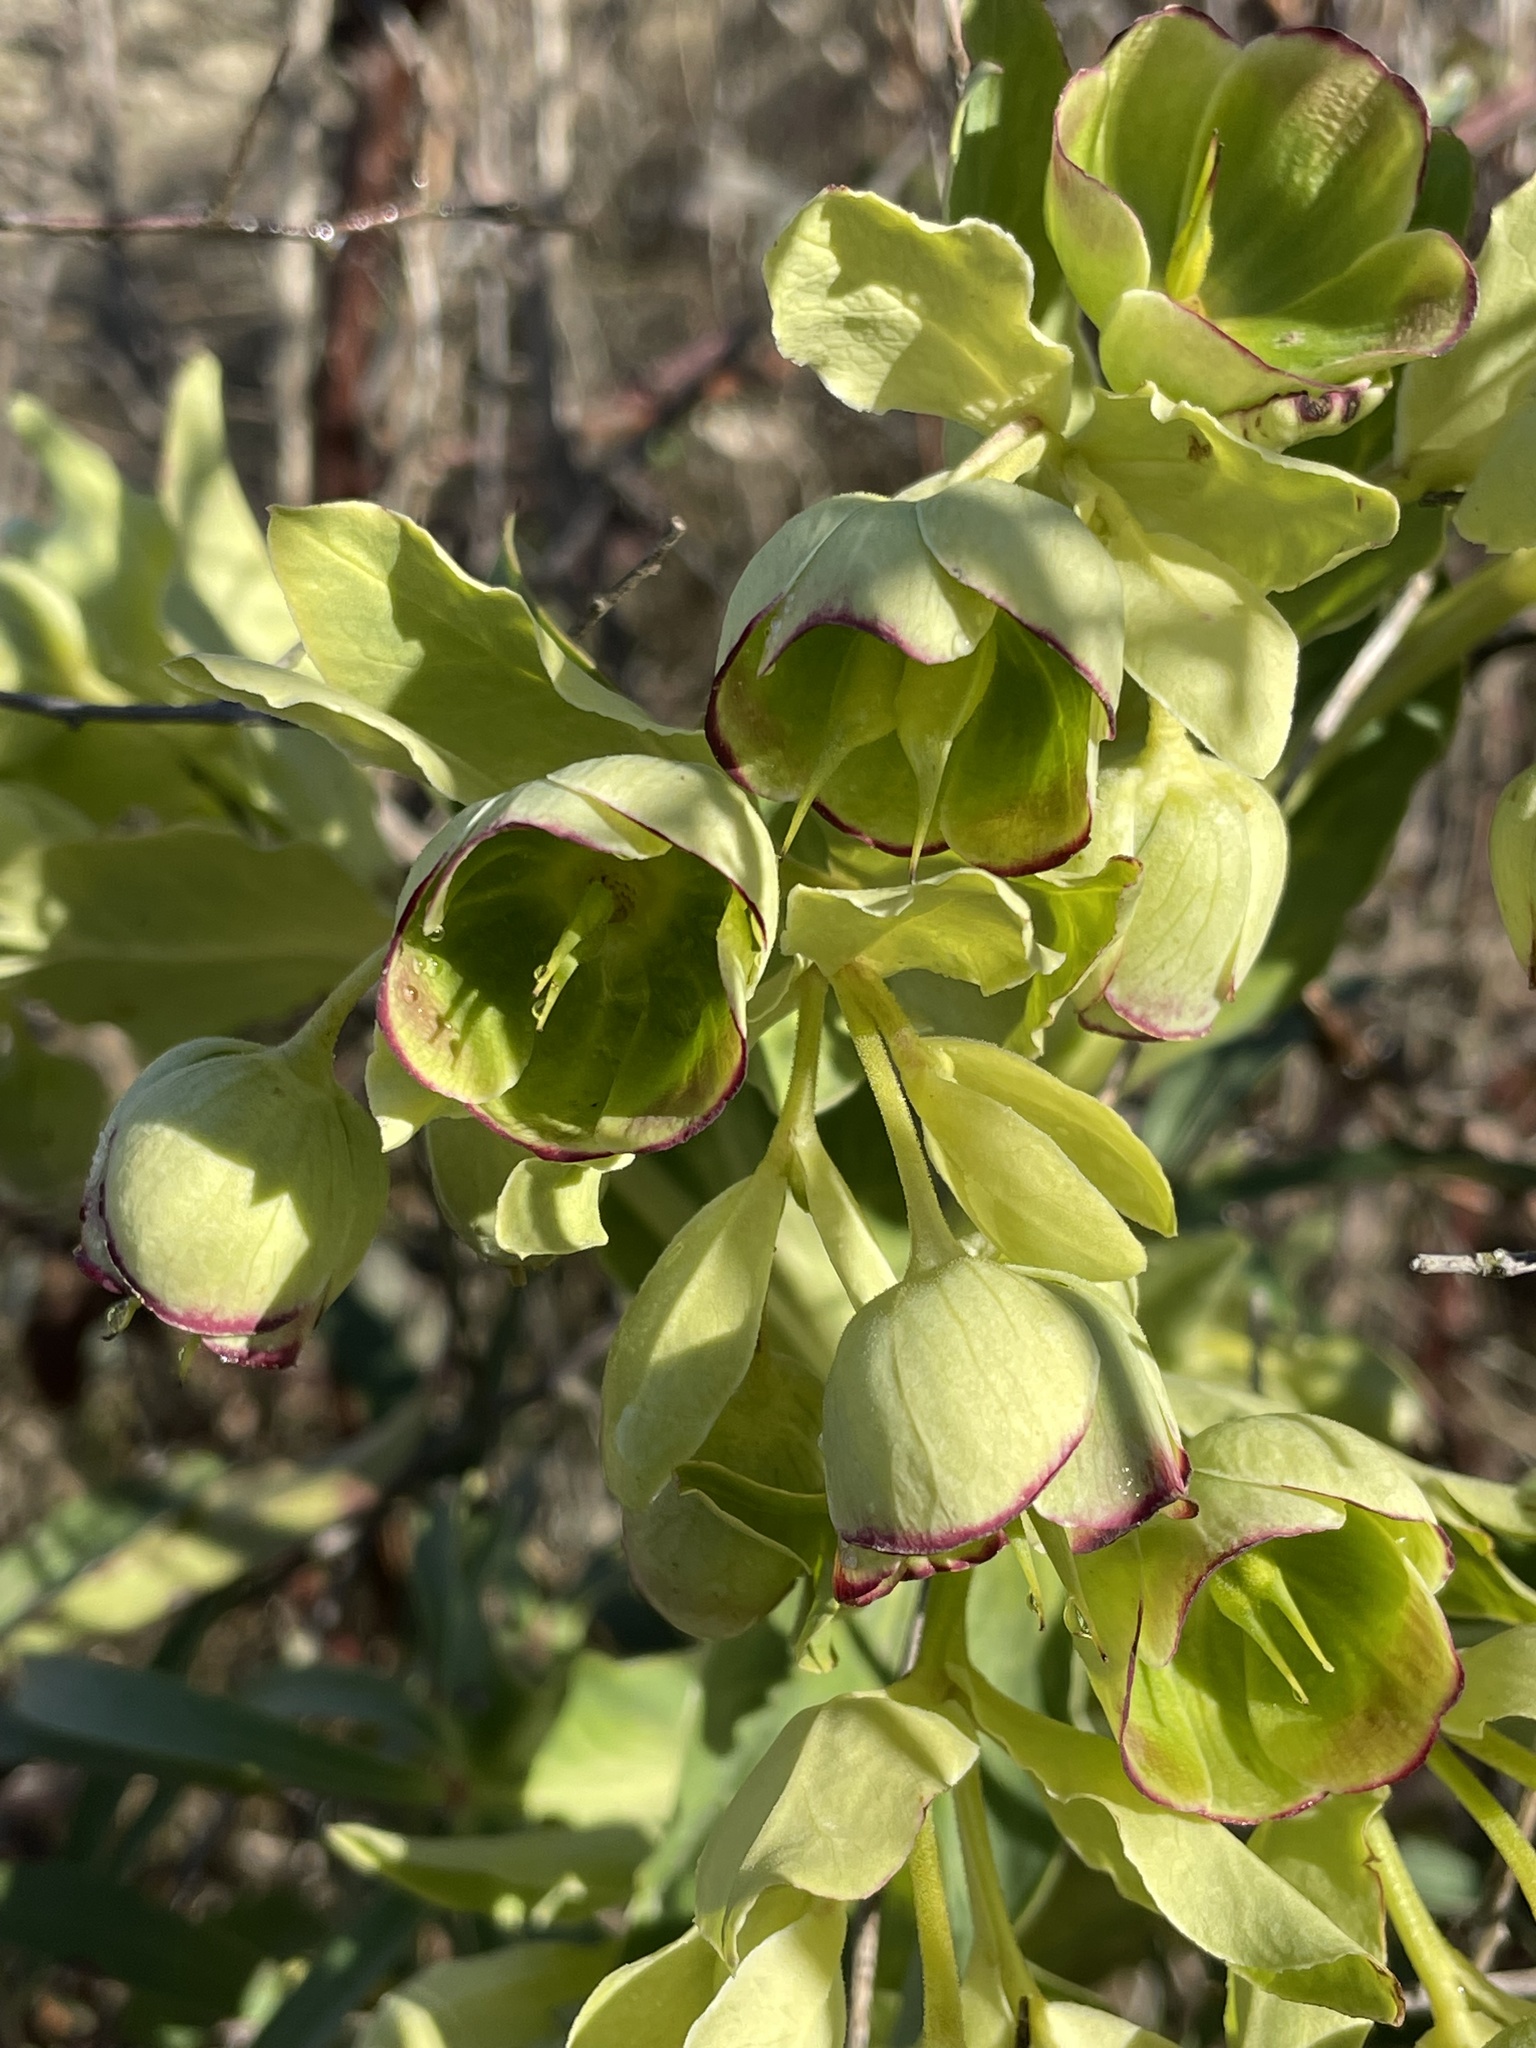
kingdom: Plantae
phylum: Tracheophyta
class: Magnoliopsida
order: Ranunculales
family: Ranunculaceae
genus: Helleborus
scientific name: Helleborus foetidus
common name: Stinking hellebore
